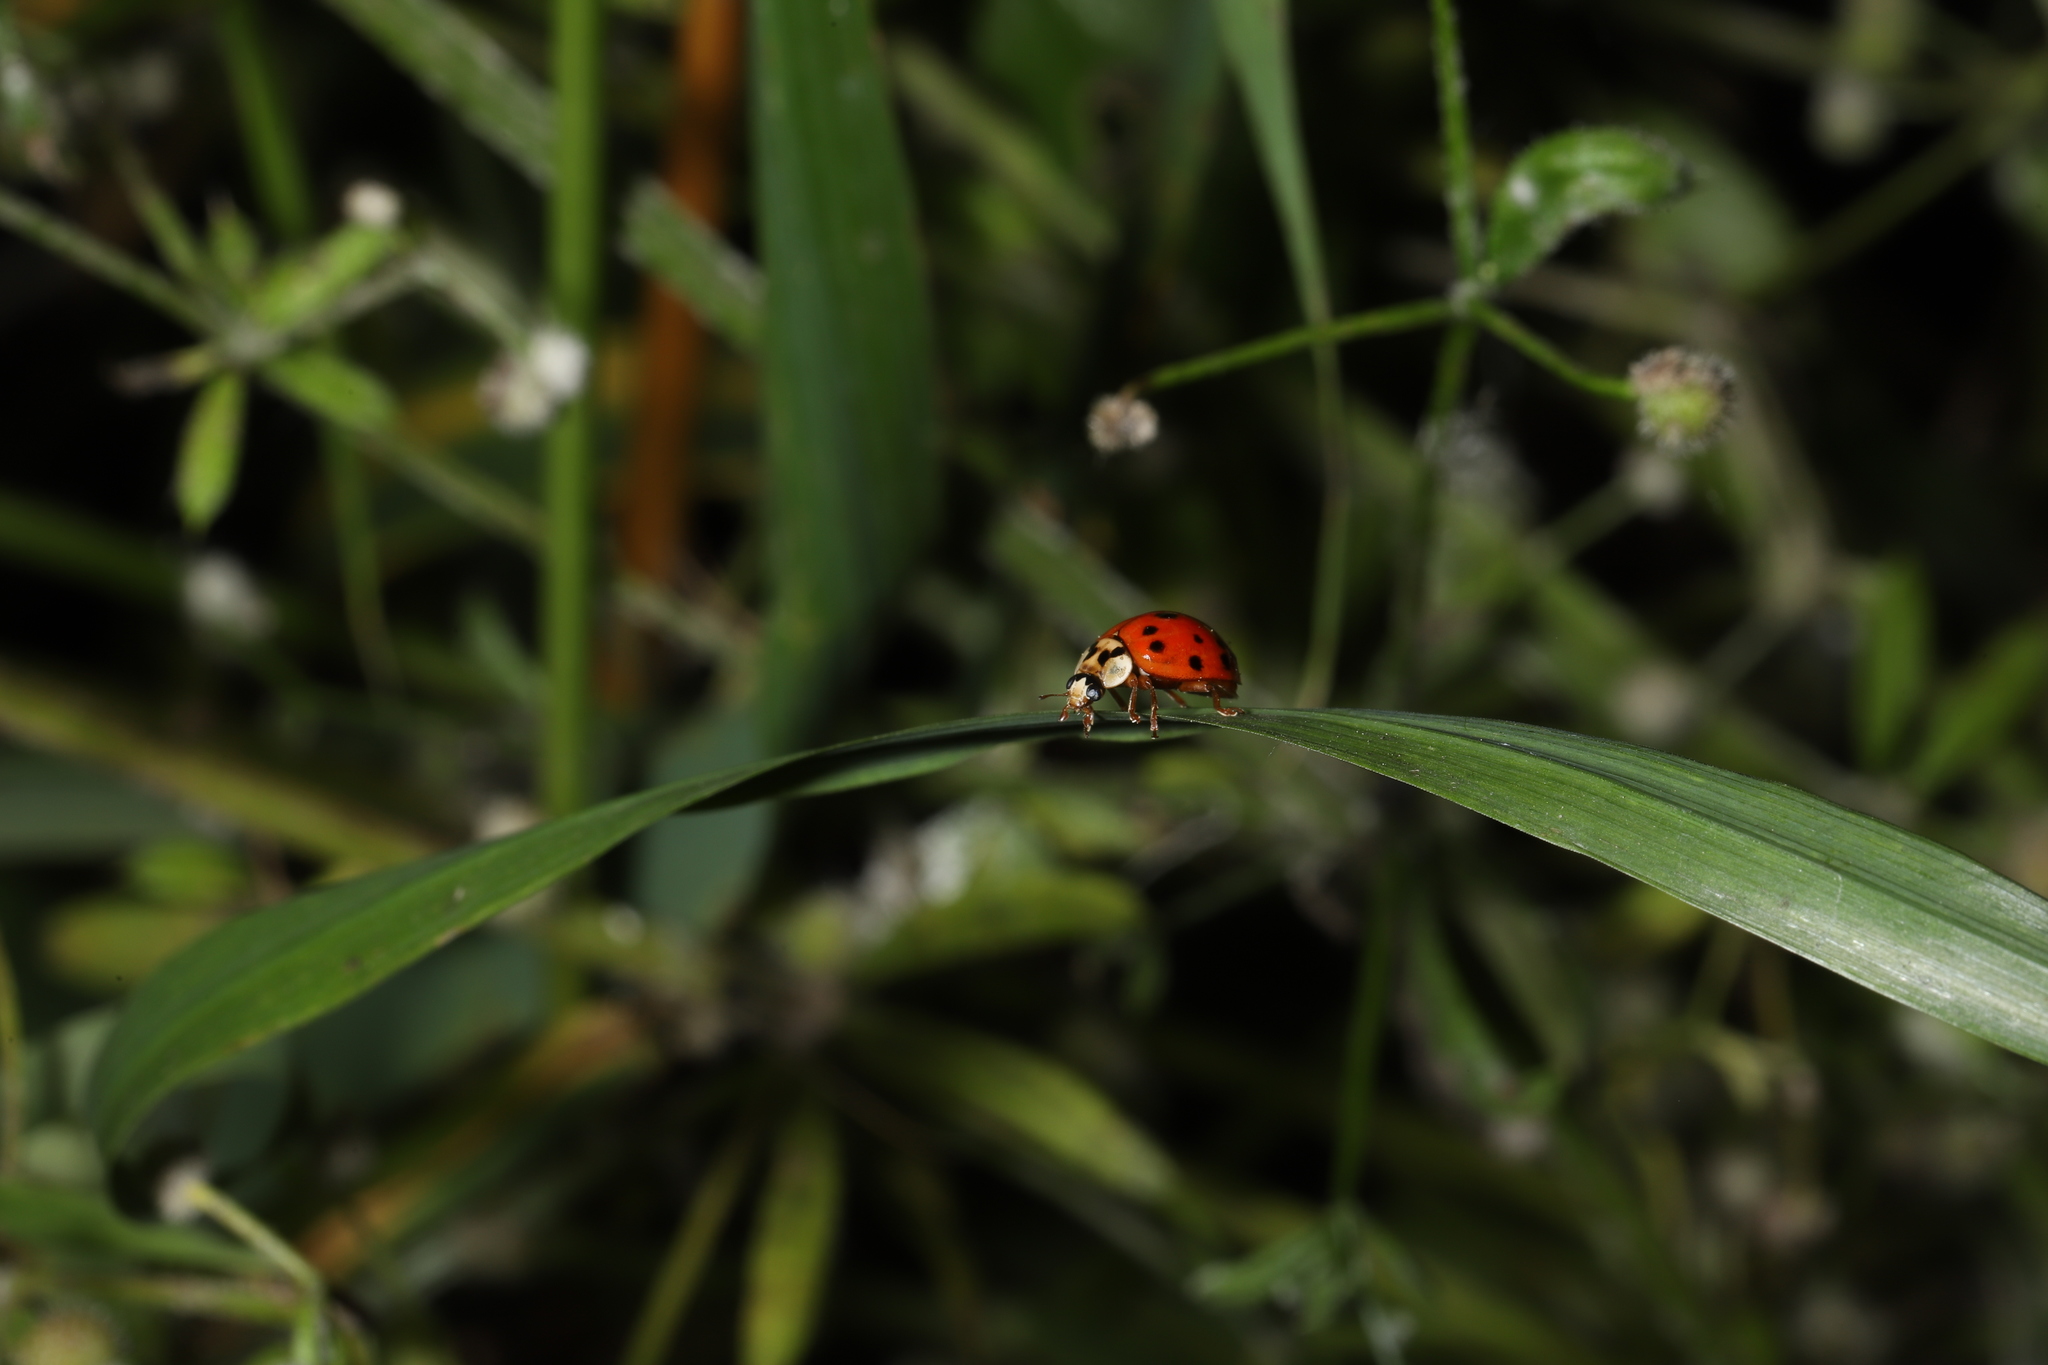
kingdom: Animalia
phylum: Arthropoda
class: Insecta
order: Coleoptera
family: Coccinellidae
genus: Harmonia
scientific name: Harmonia axyridis
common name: Harlequin ladybird
